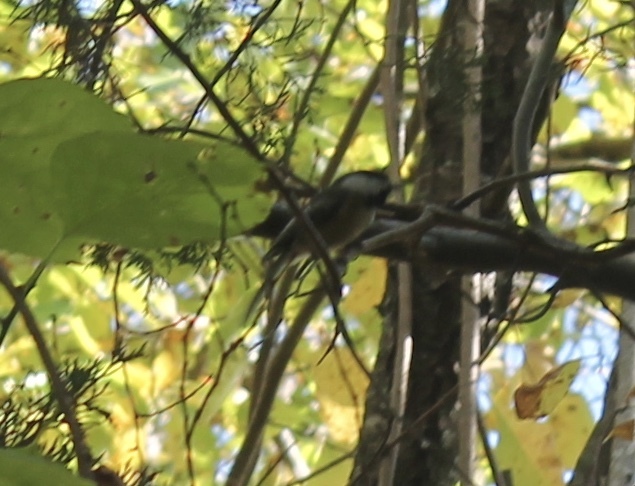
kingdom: Animalia
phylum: Chordata
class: Aves
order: Passeriformes
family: Paridae
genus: Poecile
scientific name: Poecile atricapillus
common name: Black-capped chickadee
